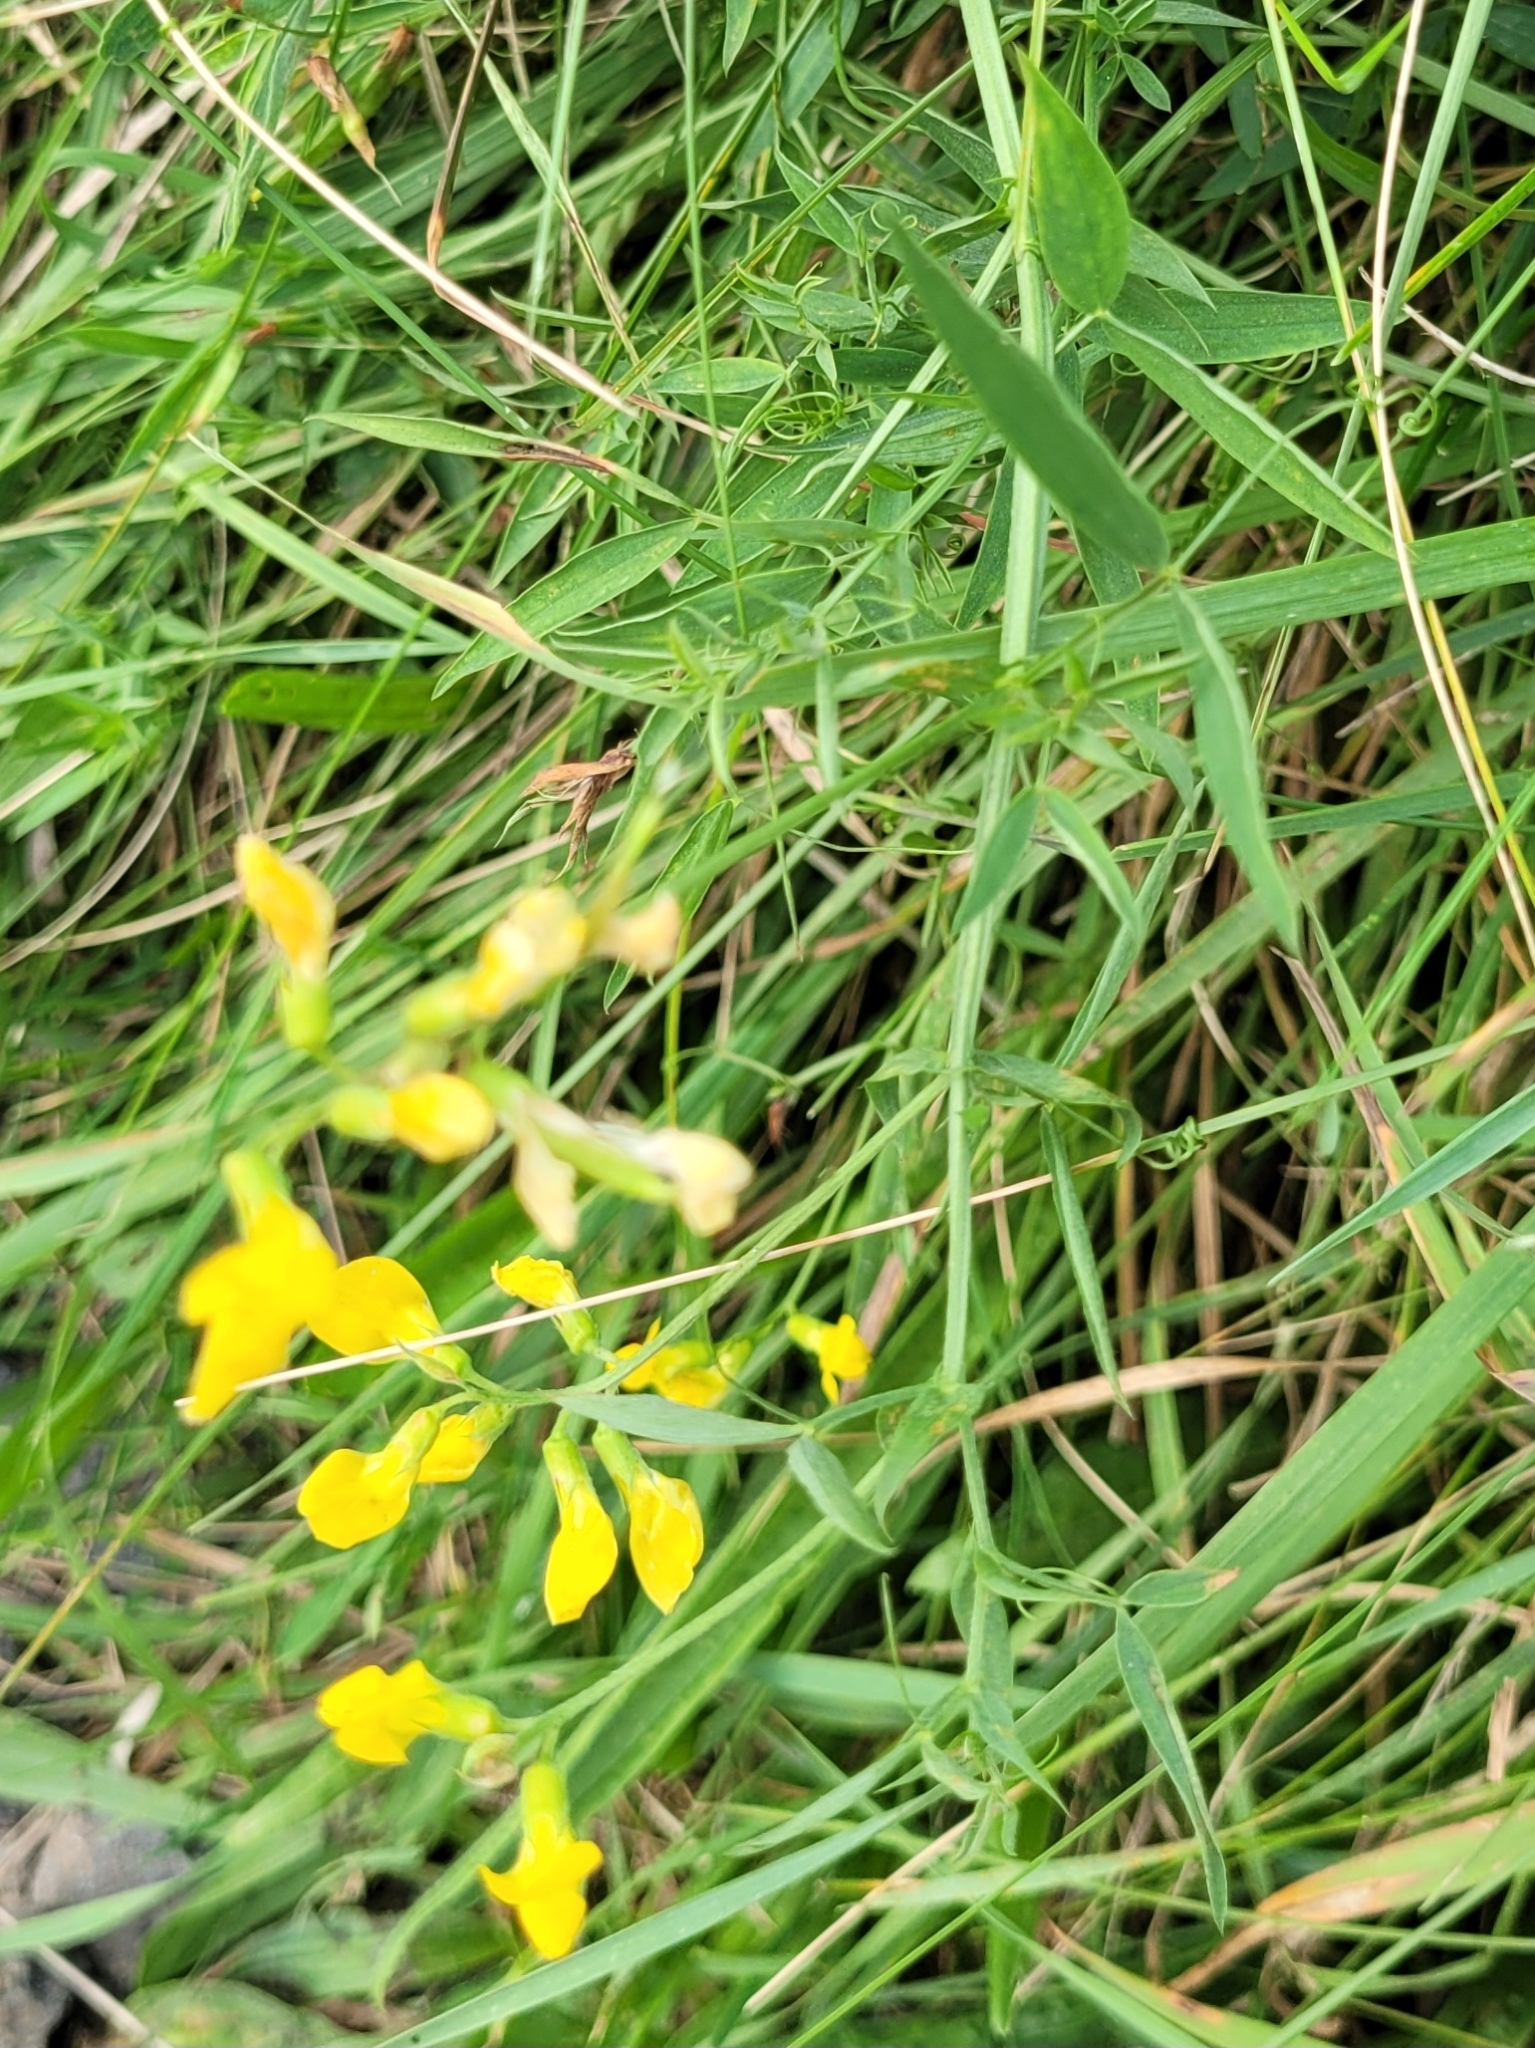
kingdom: Plantae
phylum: Tracheophyta
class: Magnoliopsida
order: Fabales
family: Fabaceae
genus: Lathyrus
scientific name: Lathyrus pratensis
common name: Meadow vetchling
